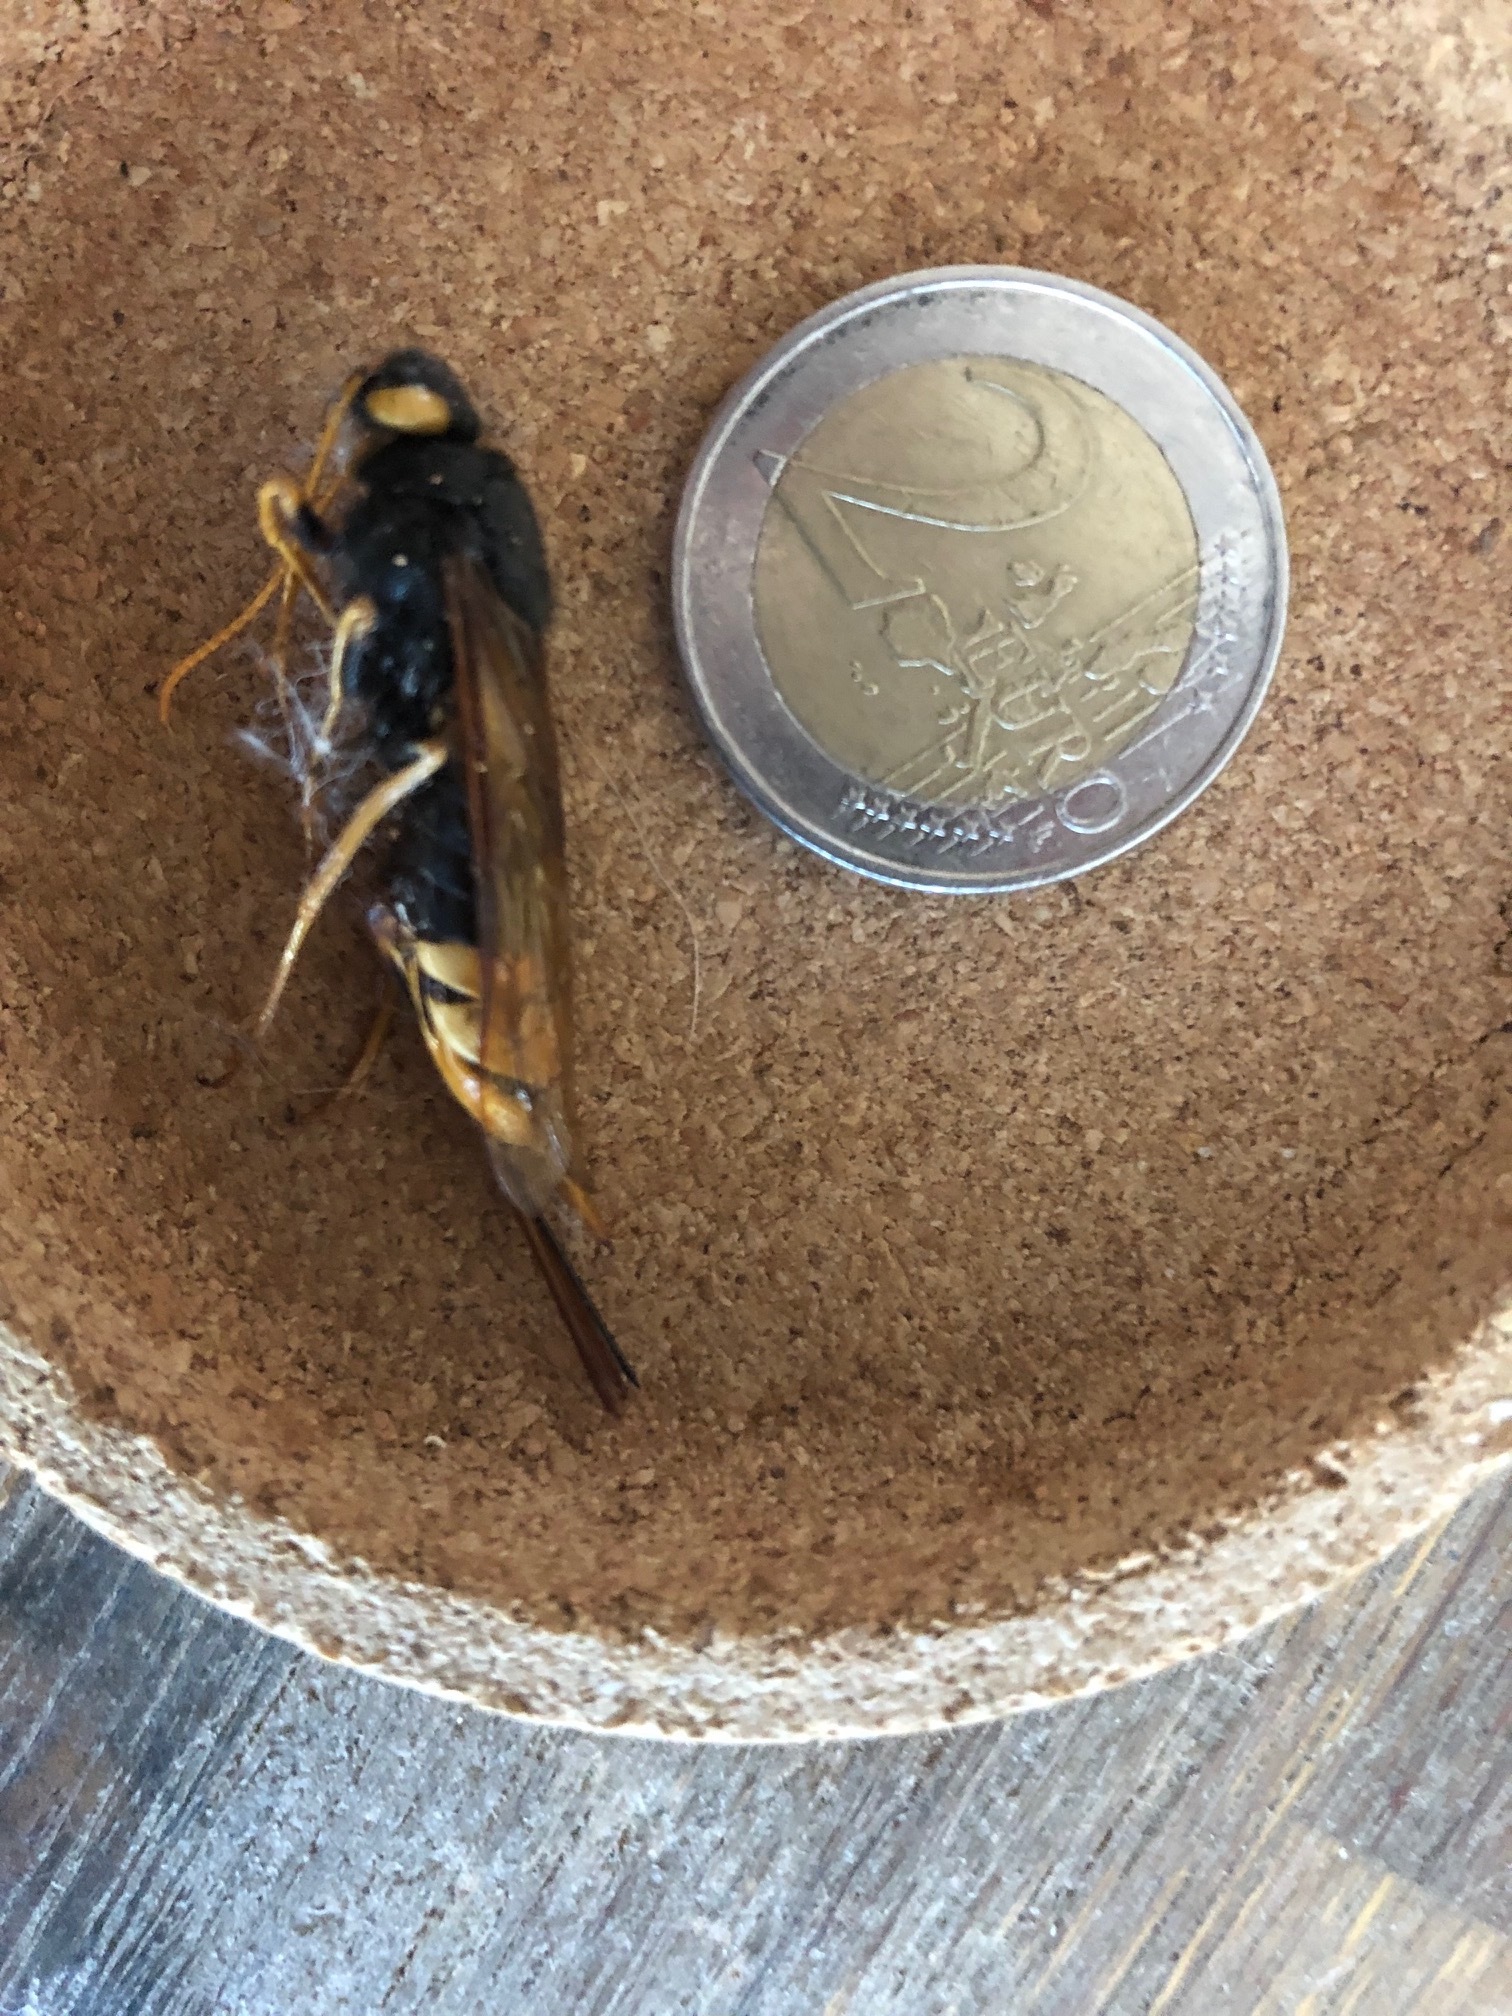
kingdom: Animalia
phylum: Arthropoda
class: Insecta
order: Hymenoptera
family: Siricidae
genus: Urocerus
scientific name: Urocerus gigas
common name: Giant woodwasp
